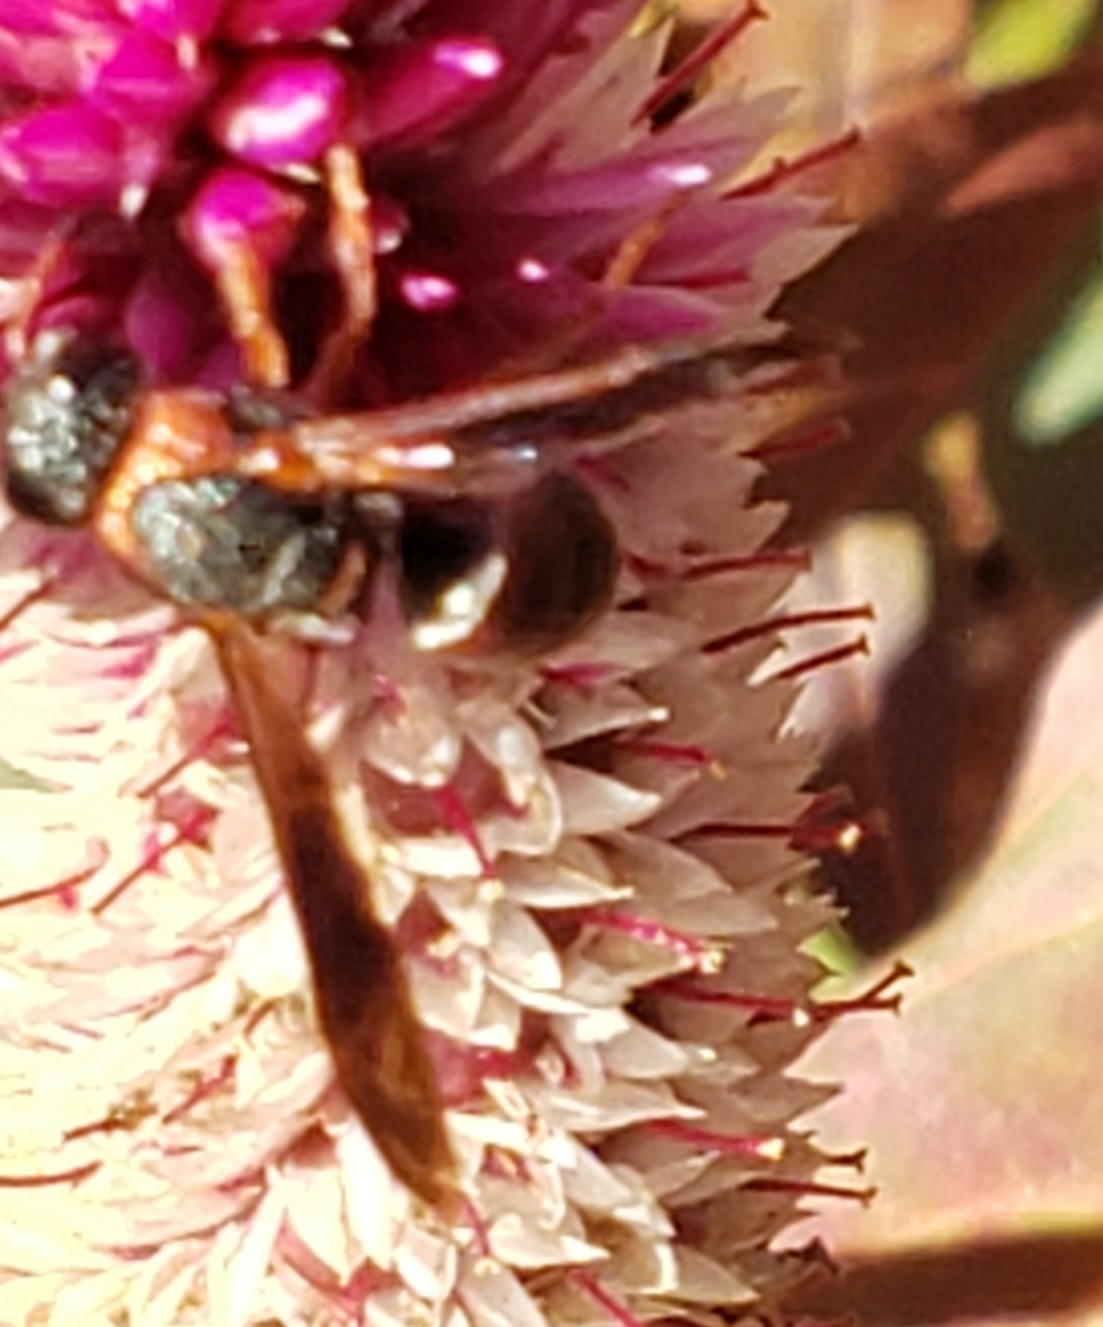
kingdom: Animalia
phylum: Arthropoda
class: Insecta
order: Hymenoptera
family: Eumenidae
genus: Pachodynerus
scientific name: Pachodynerus erynnis
